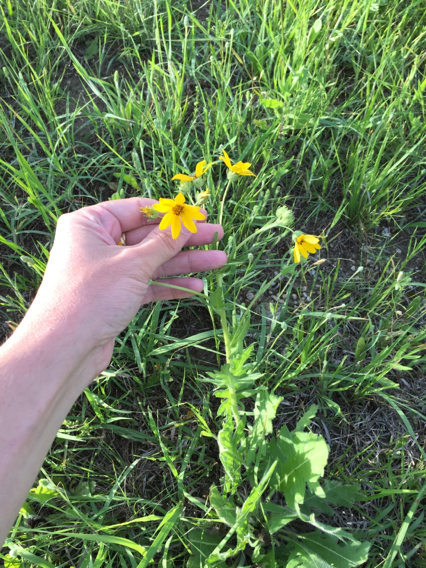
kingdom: Plantae
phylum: Tracheophyta
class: Magnoliopsida
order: Asterales
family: Asteraceae
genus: Engelmannia
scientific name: Engelmannia peristenia
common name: Engelmann's daisy
